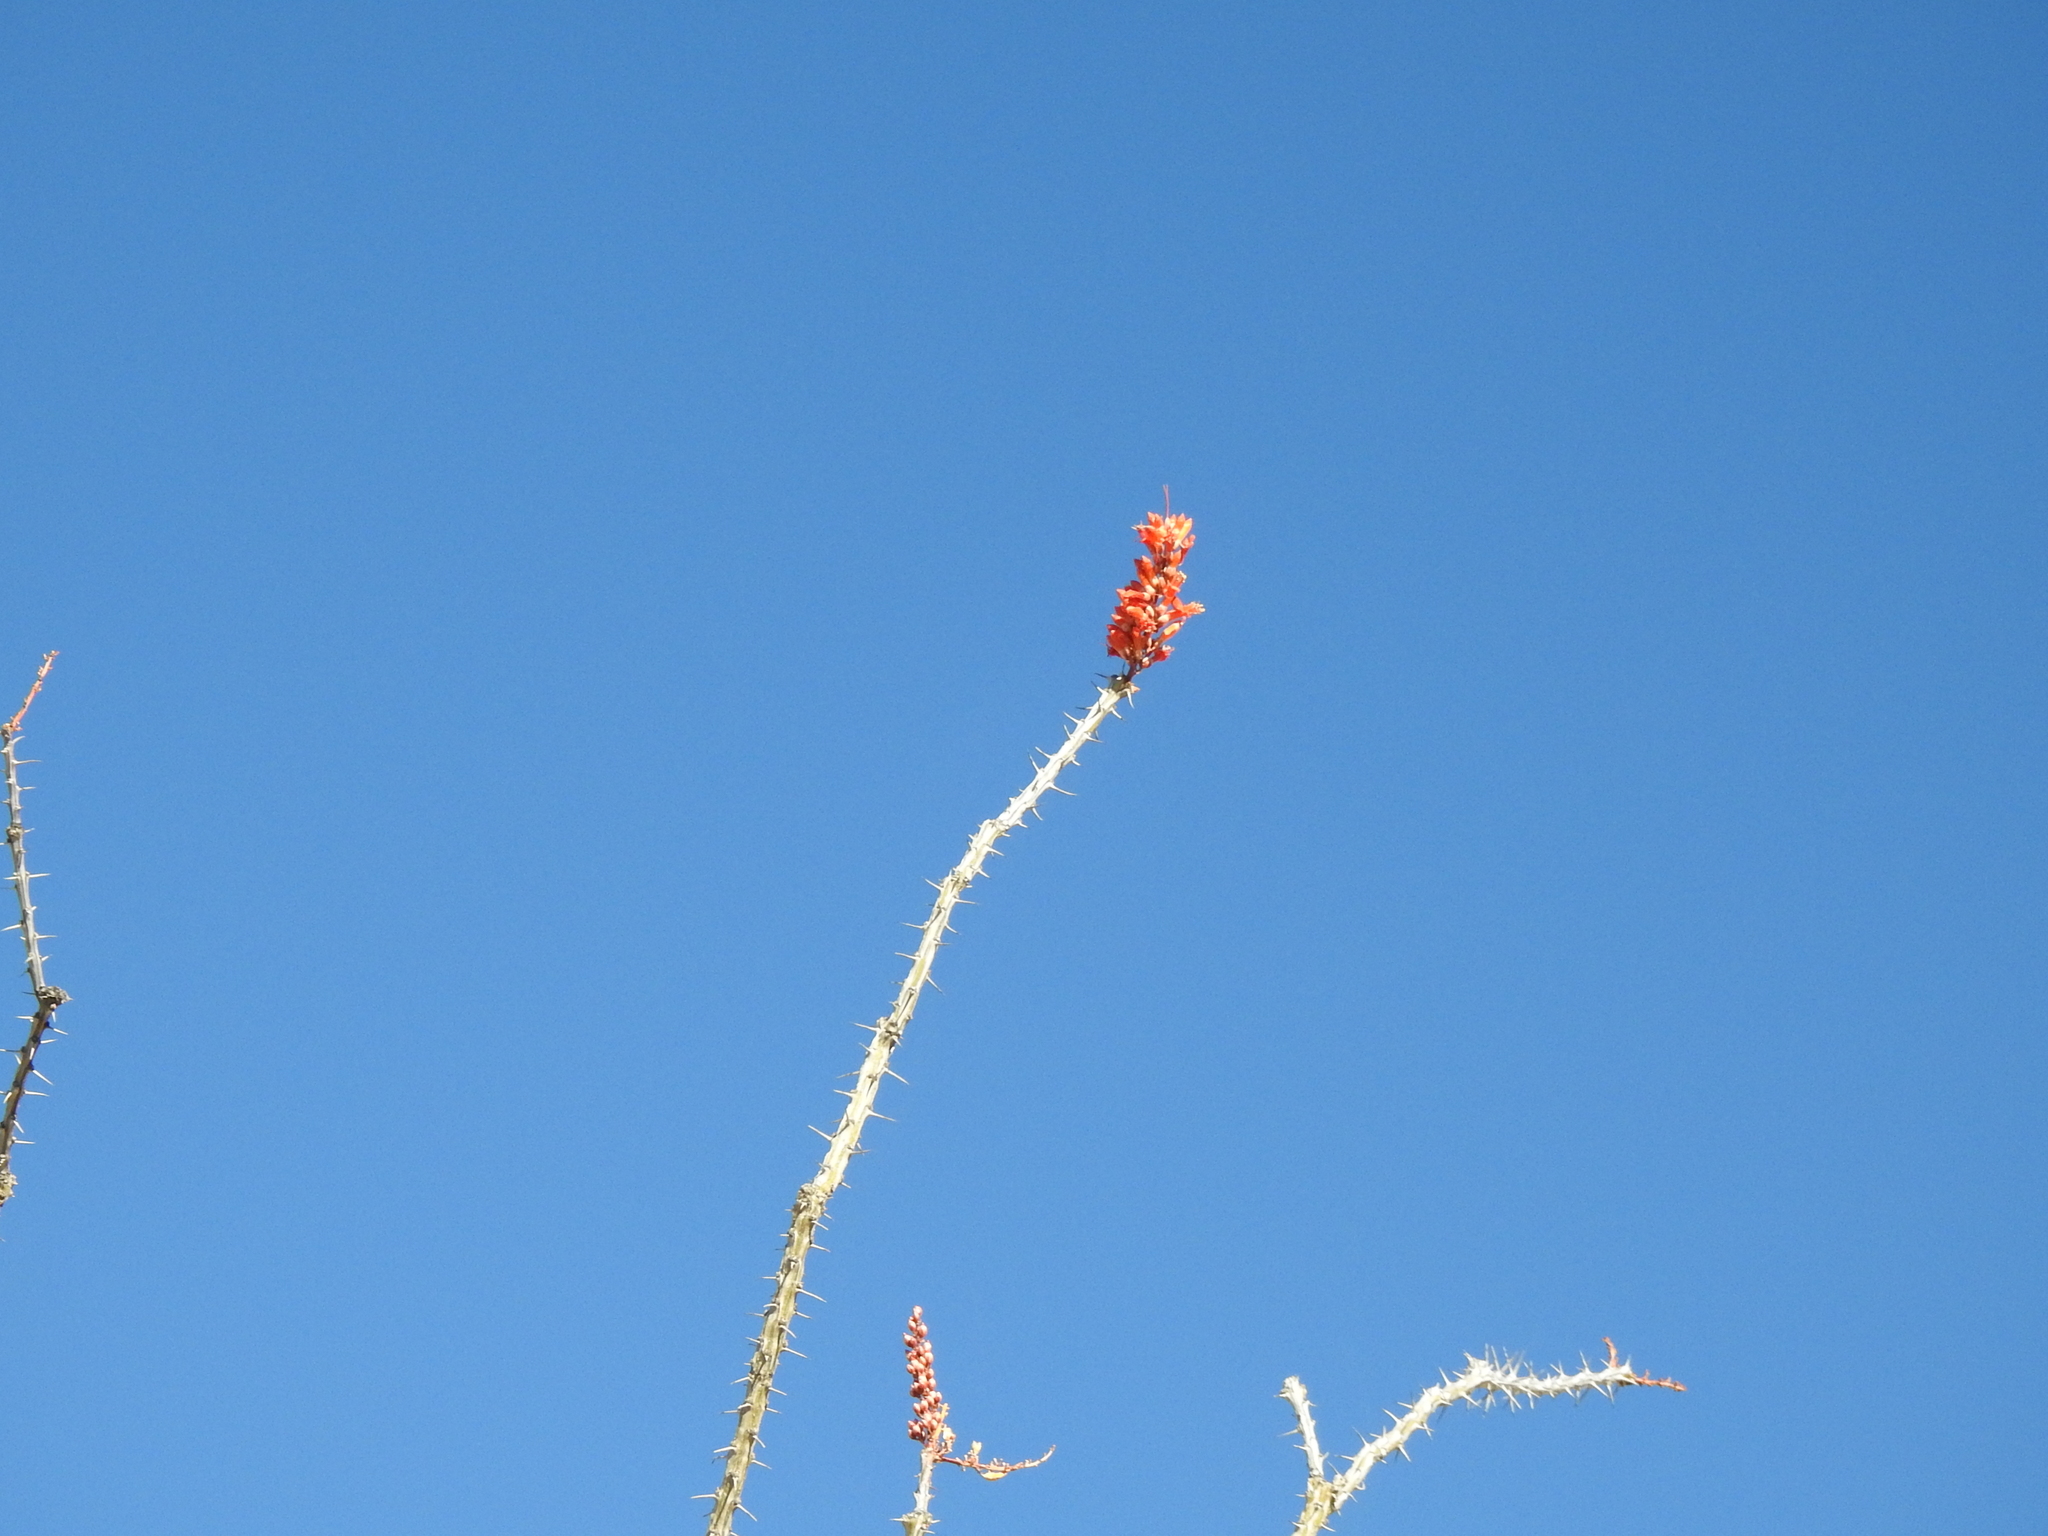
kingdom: Plantae
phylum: Tracheophyta
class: Magnoliopsida
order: Ericales
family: Fouquieriaceae
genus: Fouquieria
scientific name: Fouquieria splendens
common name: Vine-cactus
